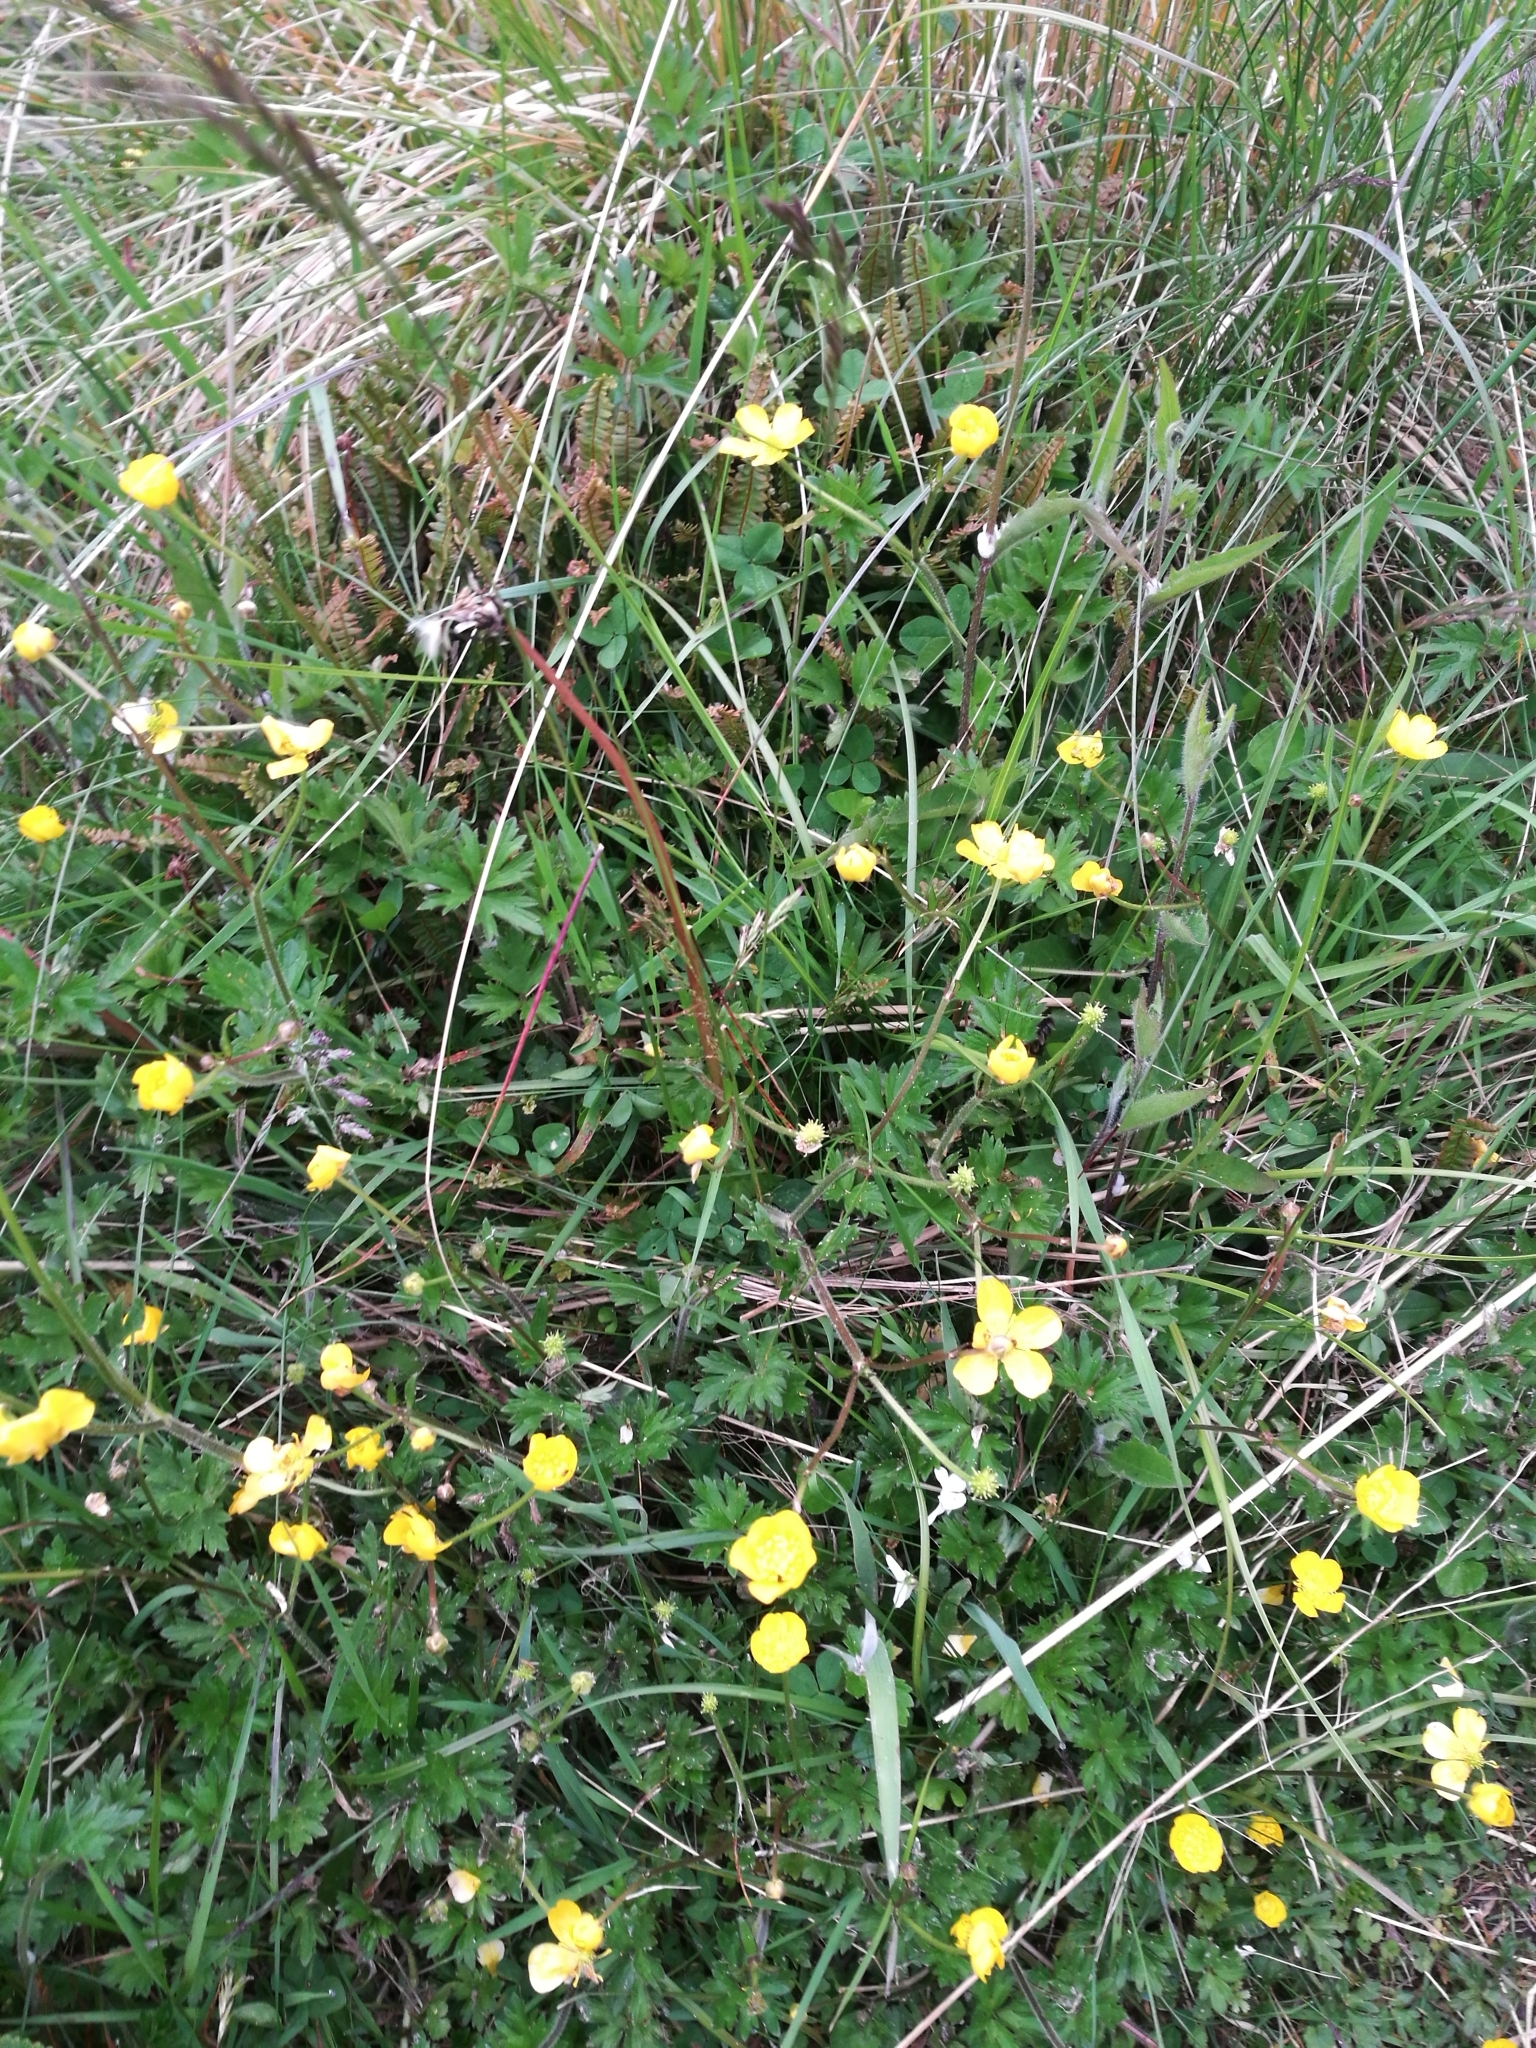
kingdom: Plantae
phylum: Tracheophyta
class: Magnoliopsida
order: Ranunculales
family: Ranunculaceae
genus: Ranunculus
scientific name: Ranunculus repens
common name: Creeping buttercup
